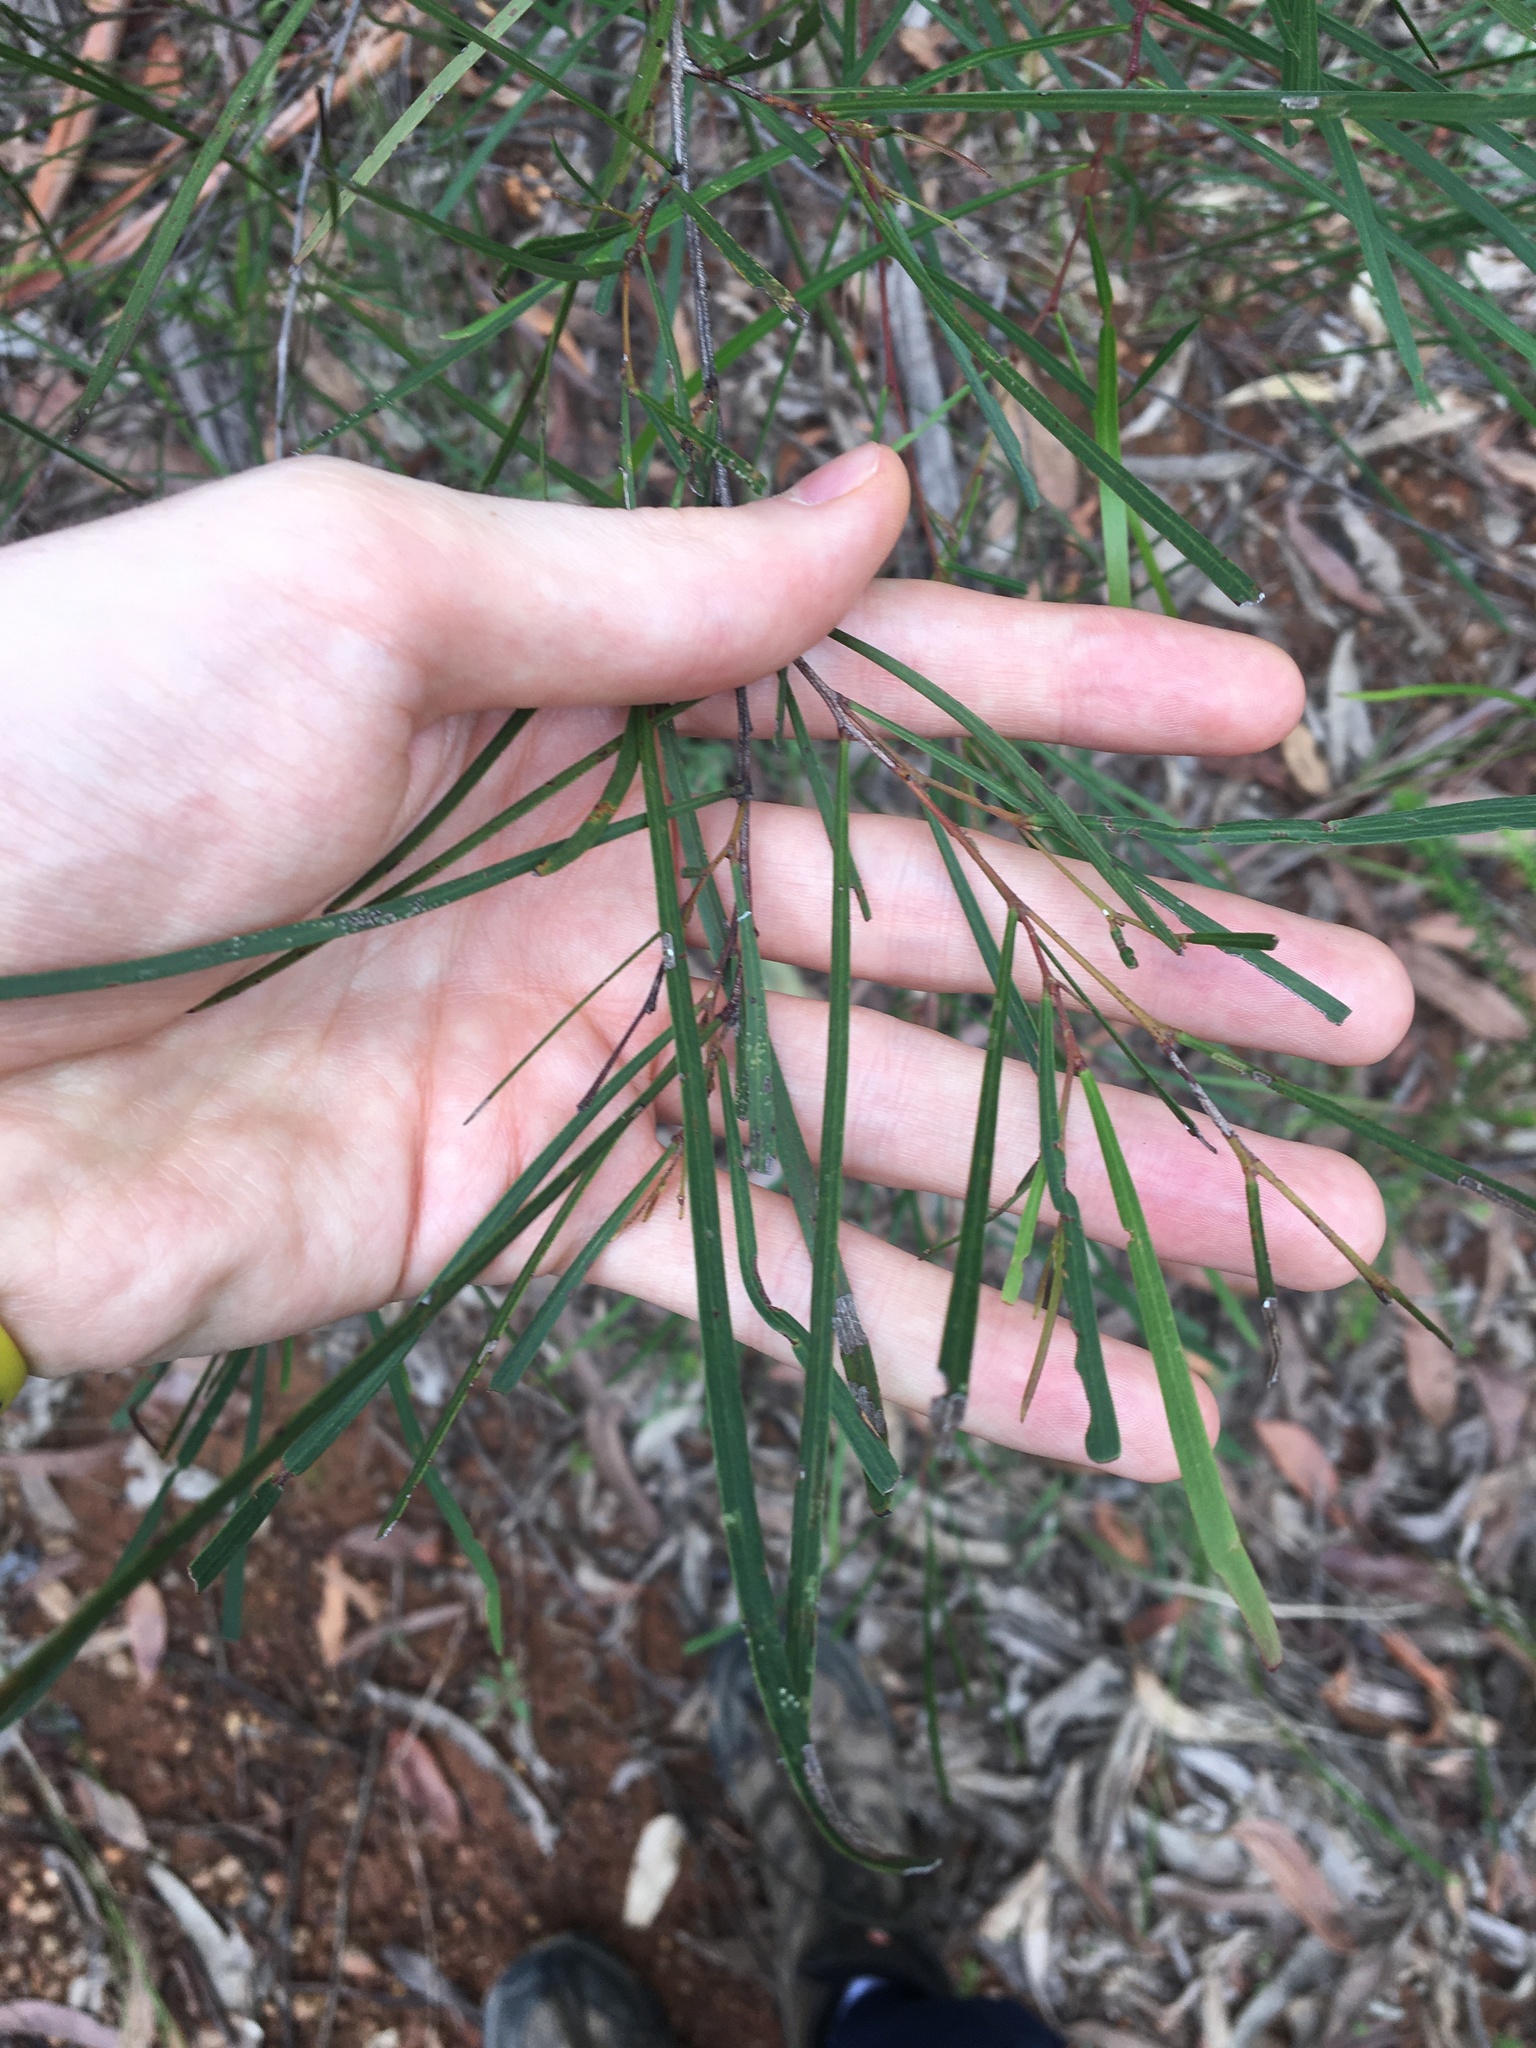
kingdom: Plantae
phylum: Tracheophyta
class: Magnoliopsida
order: Fabales
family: Fabaceae
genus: Acacia
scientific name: Acacia longissima
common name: Longleaf wattle
